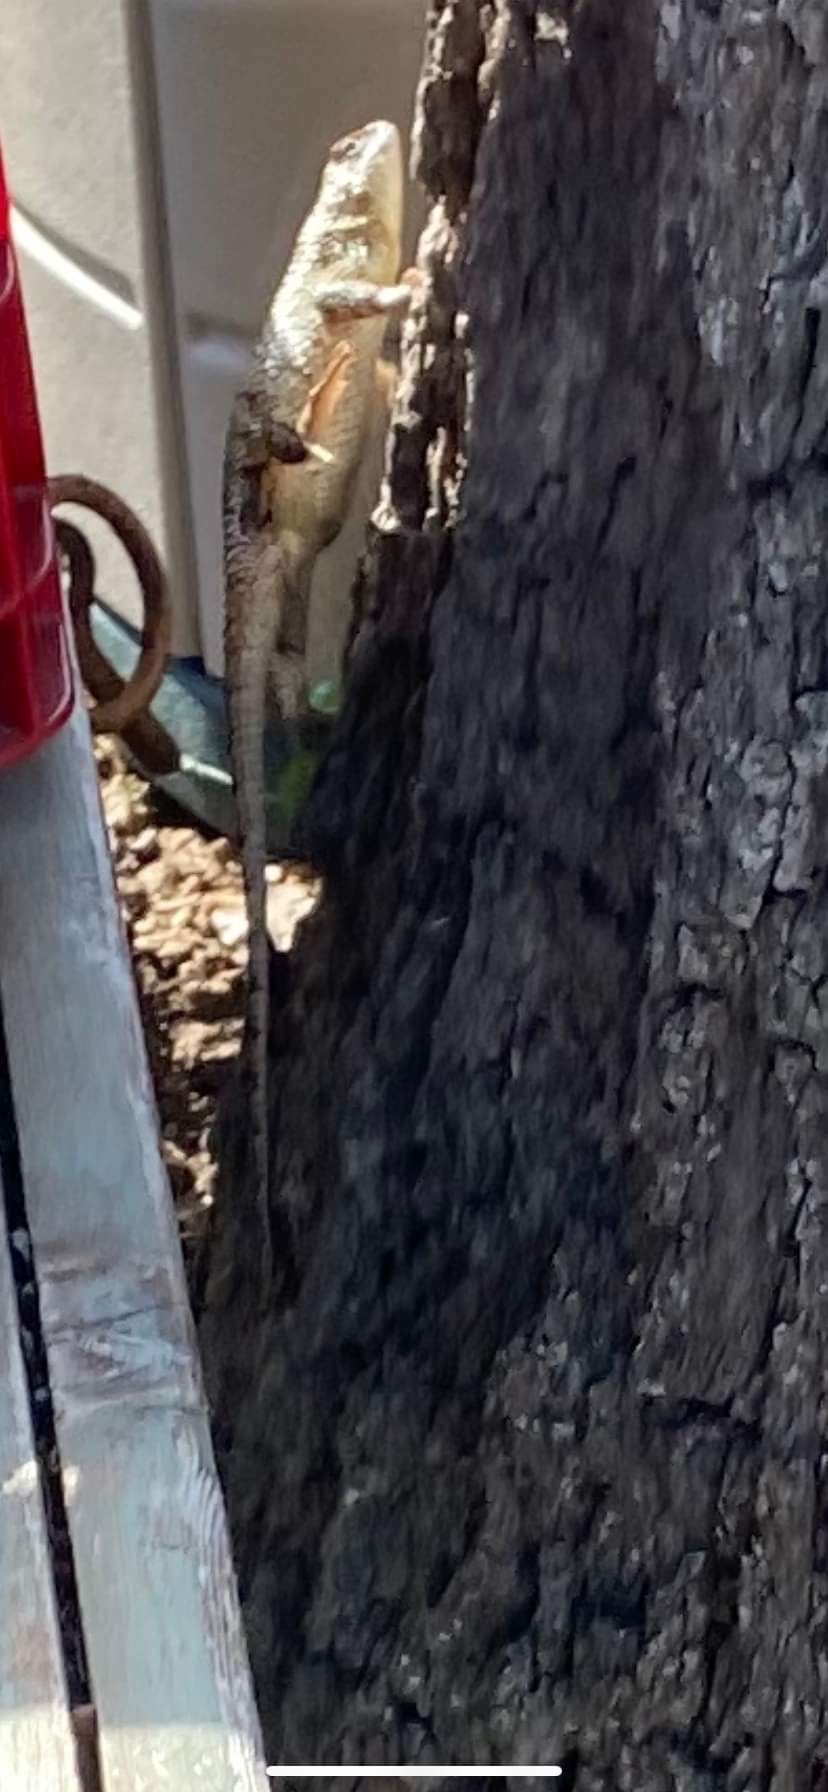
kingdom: Animalia
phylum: Chordata
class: Squamata
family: Phrynosomatidae
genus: Sceloporus
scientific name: Sceloporus olivaceus
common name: Texas spiny lizard
